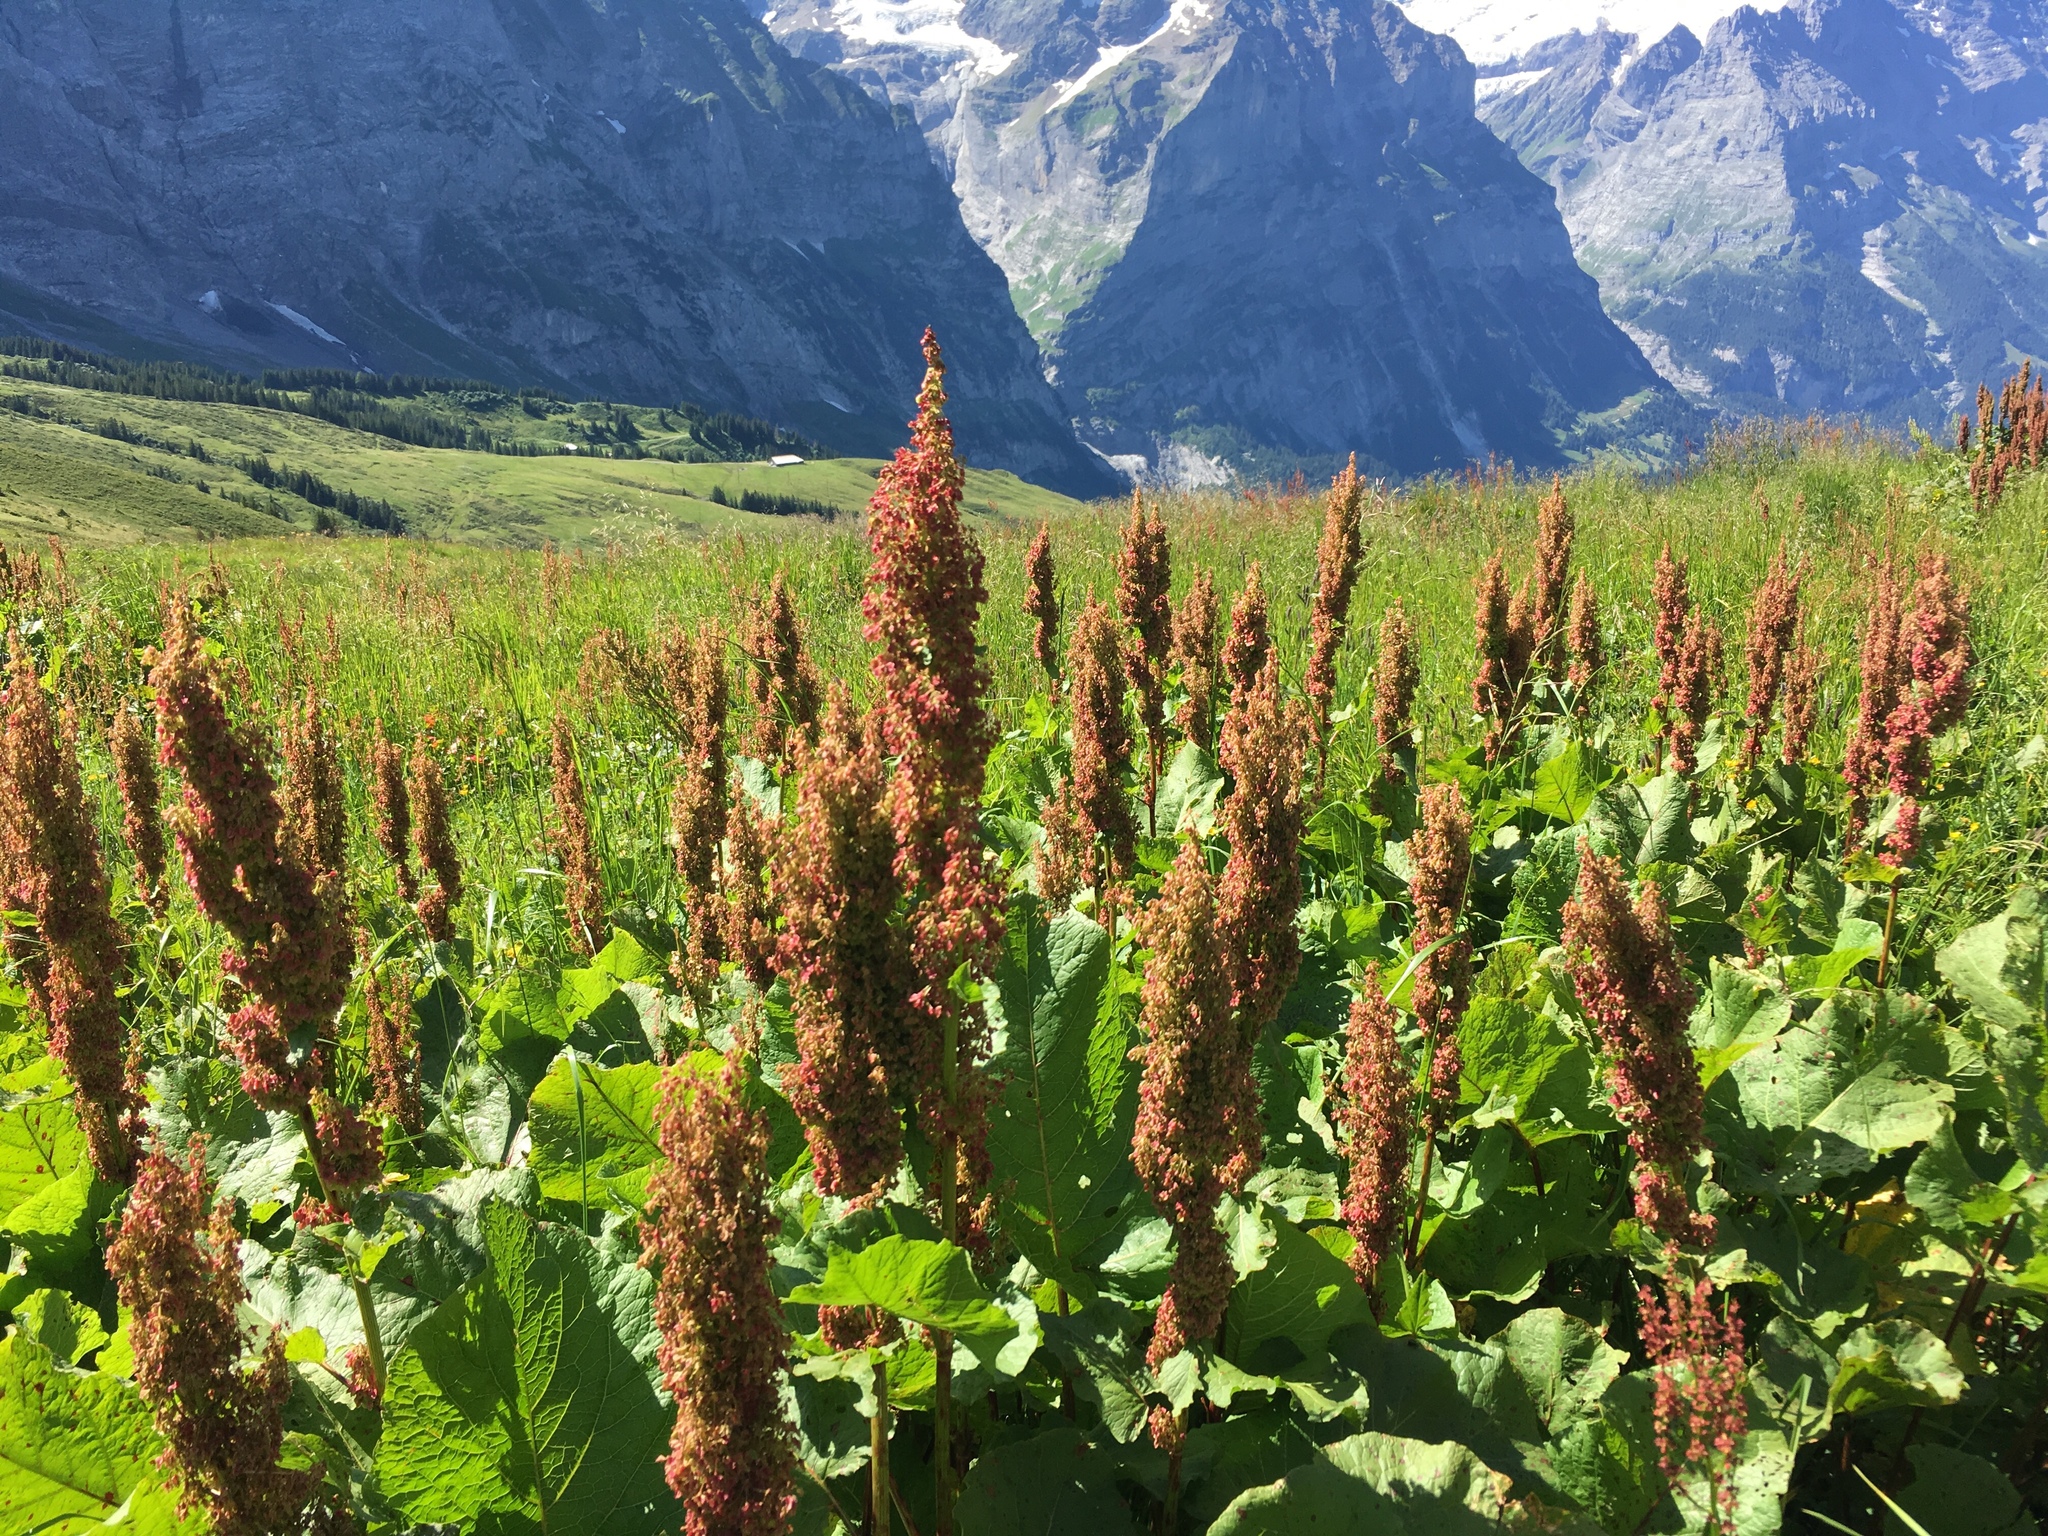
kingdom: Plantae
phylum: Tracheophyta
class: Magnoliopsida
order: Caryophyllales
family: Polygonaceae
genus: Rumex
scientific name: Rumex alpinus
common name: Alpine dock
